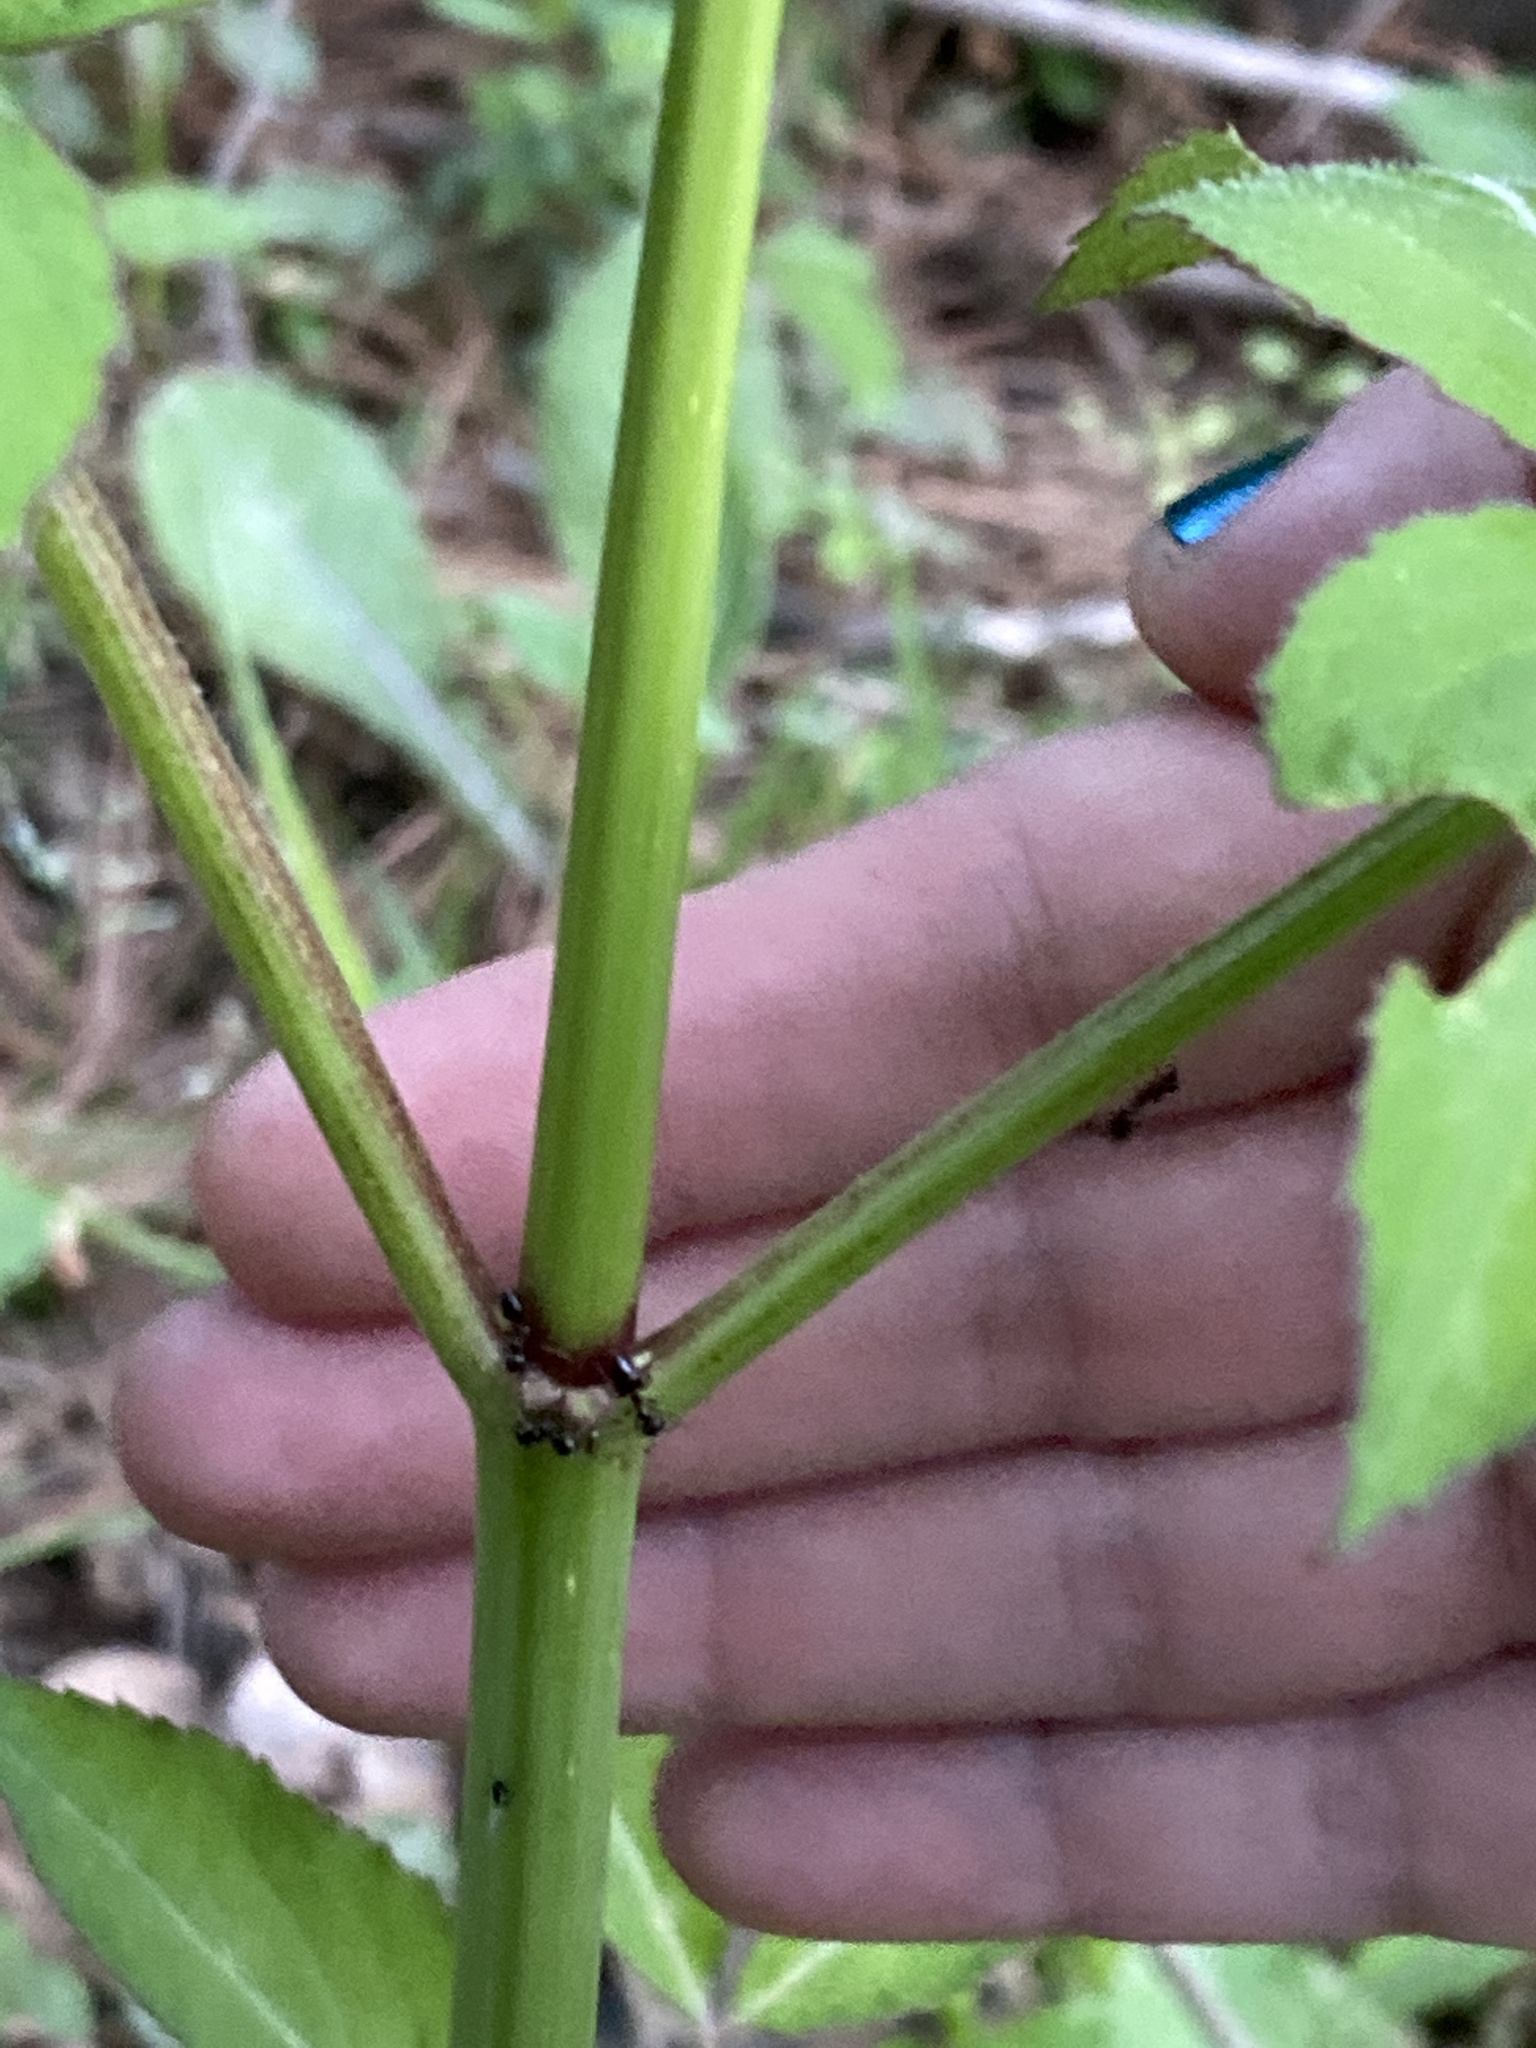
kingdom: Plantae
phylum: Tracheophyta
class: Magnoliopsida
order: Dipsacales
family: Viburnaceae
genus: Sambucus
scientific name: Sambucus canadensis
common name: American elder
